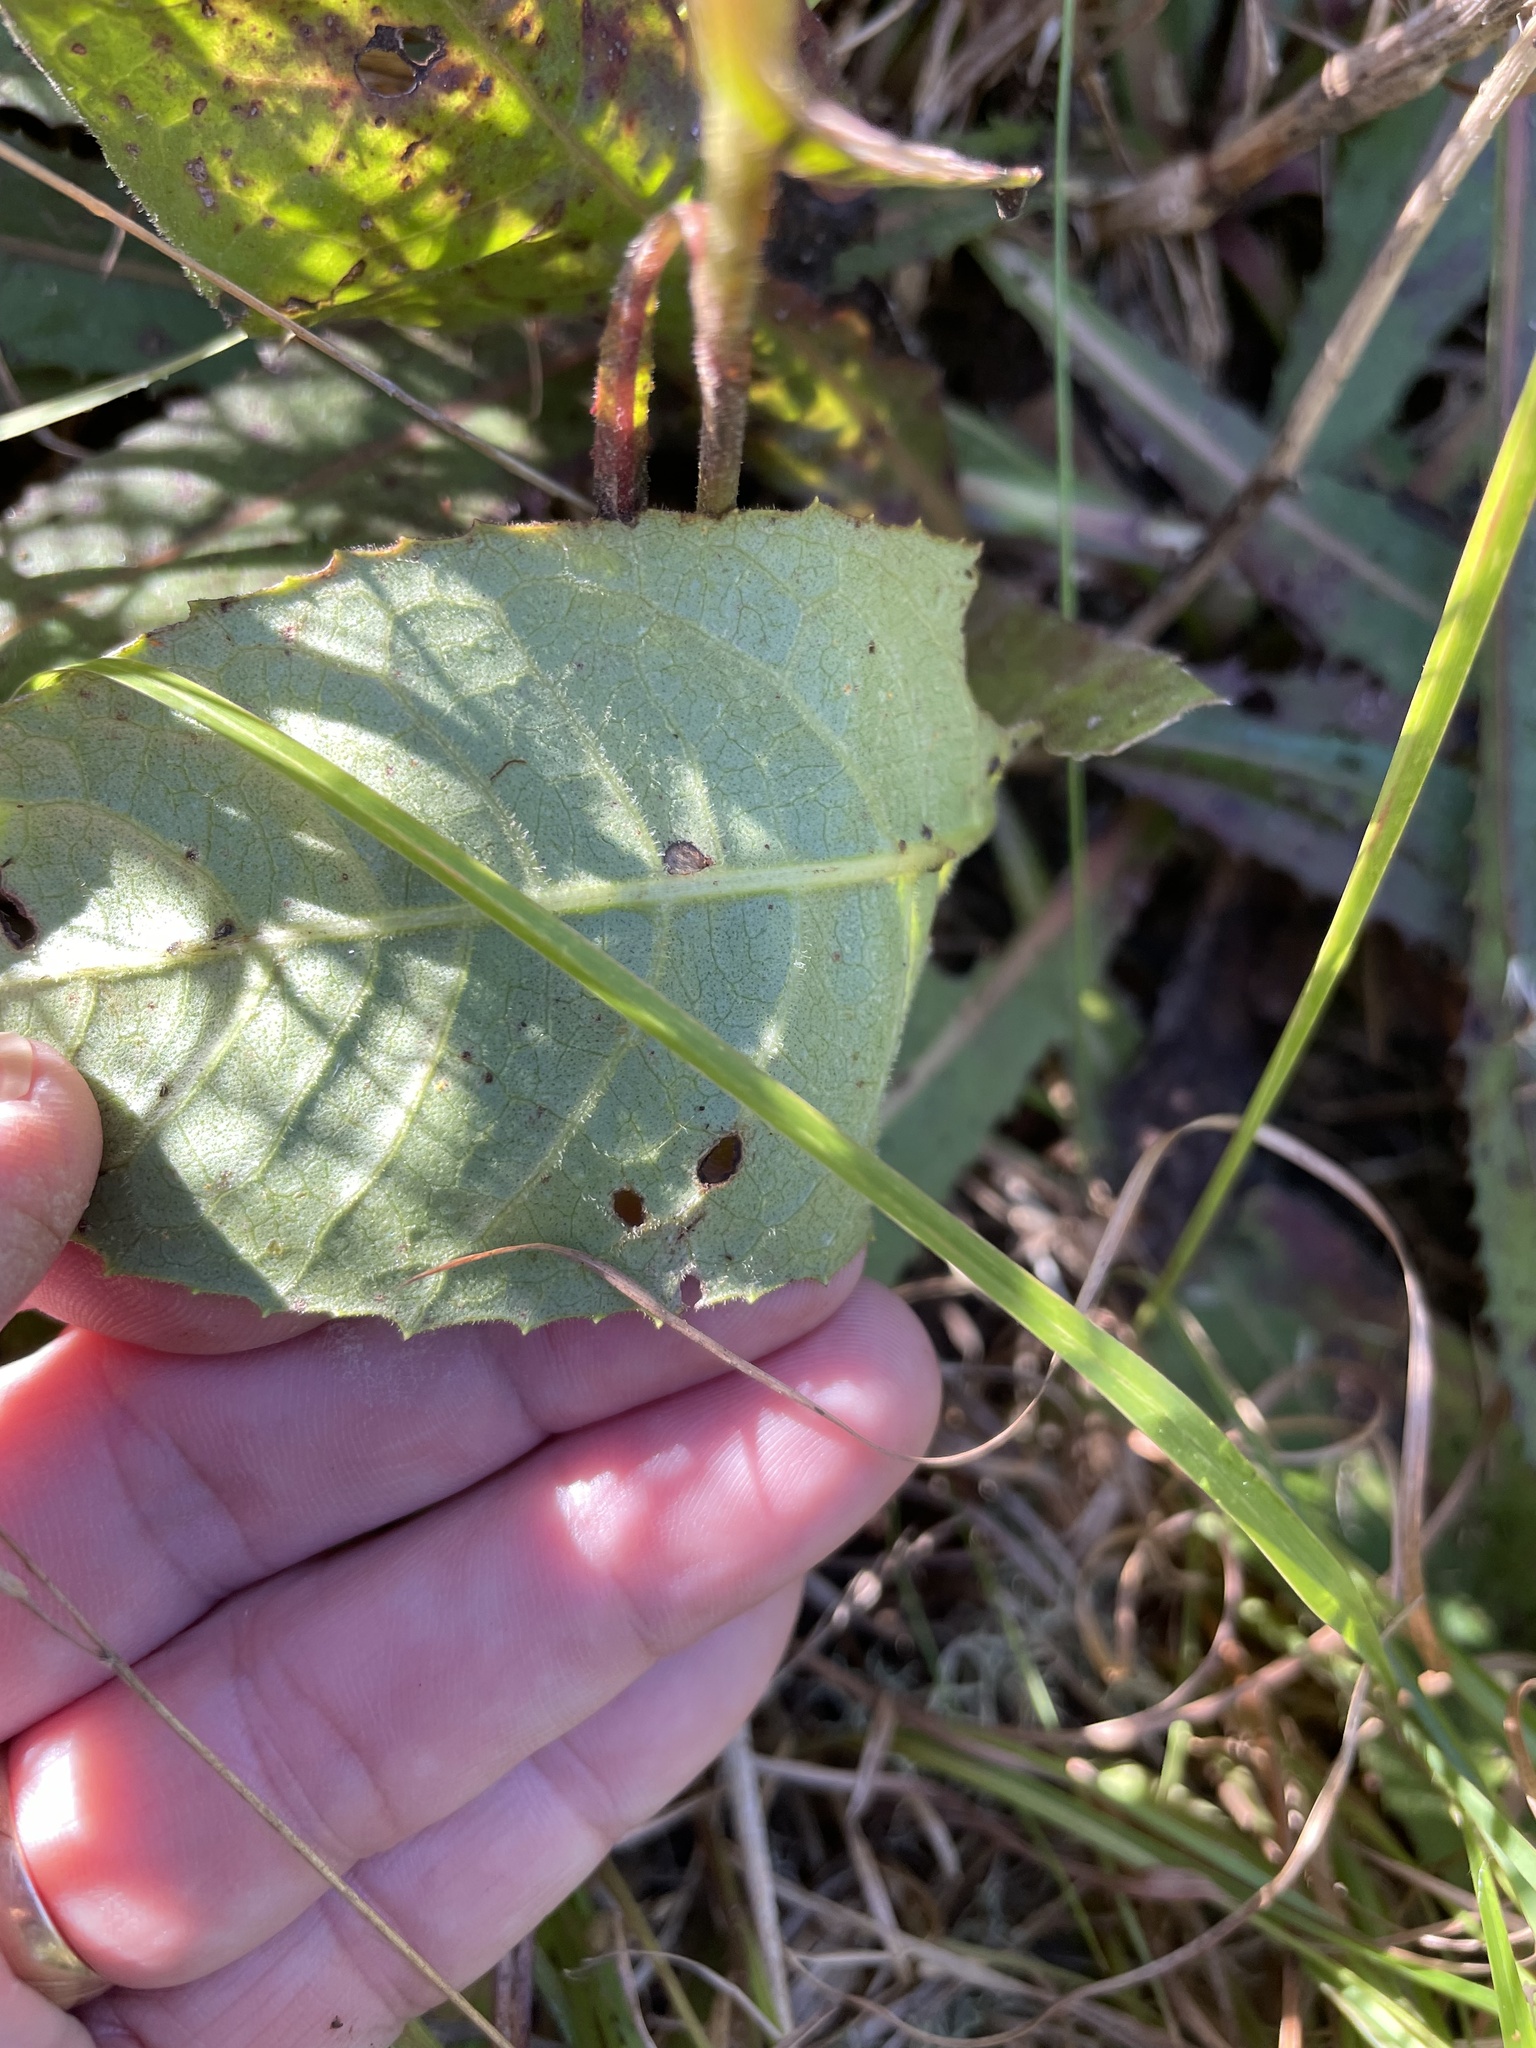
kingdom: Plantae
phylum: Tracheophyta
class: Magnoliopsida
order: Asterales
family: Asteraceae
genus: Vernonia
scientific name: Vernonia acaulis
